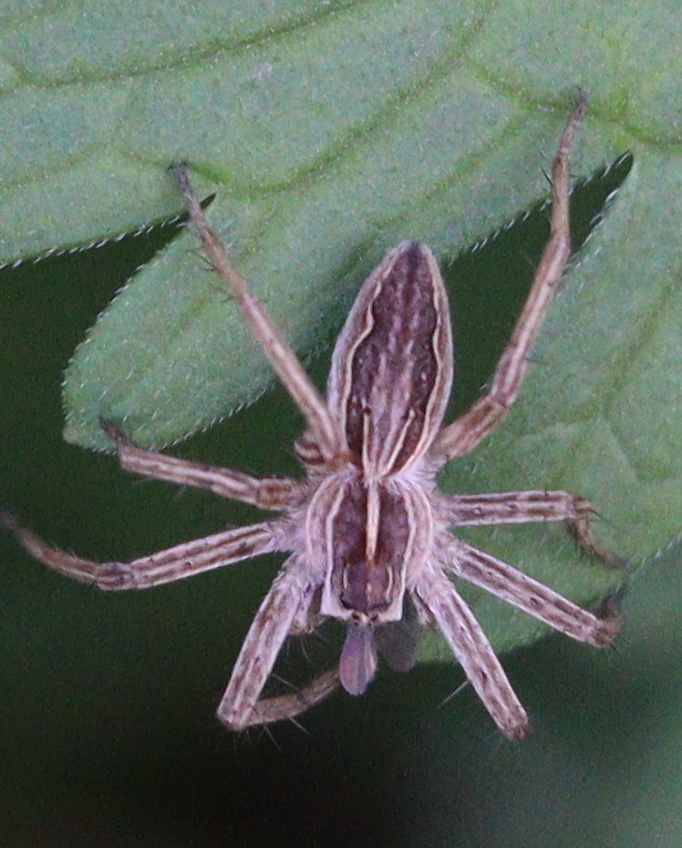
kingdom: Animalia
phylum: Arthropoda
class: Arachnida
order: Araneae
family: Pisauridae
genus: Pisaura
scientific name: Pisaura mirabilis
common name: Tent spider
